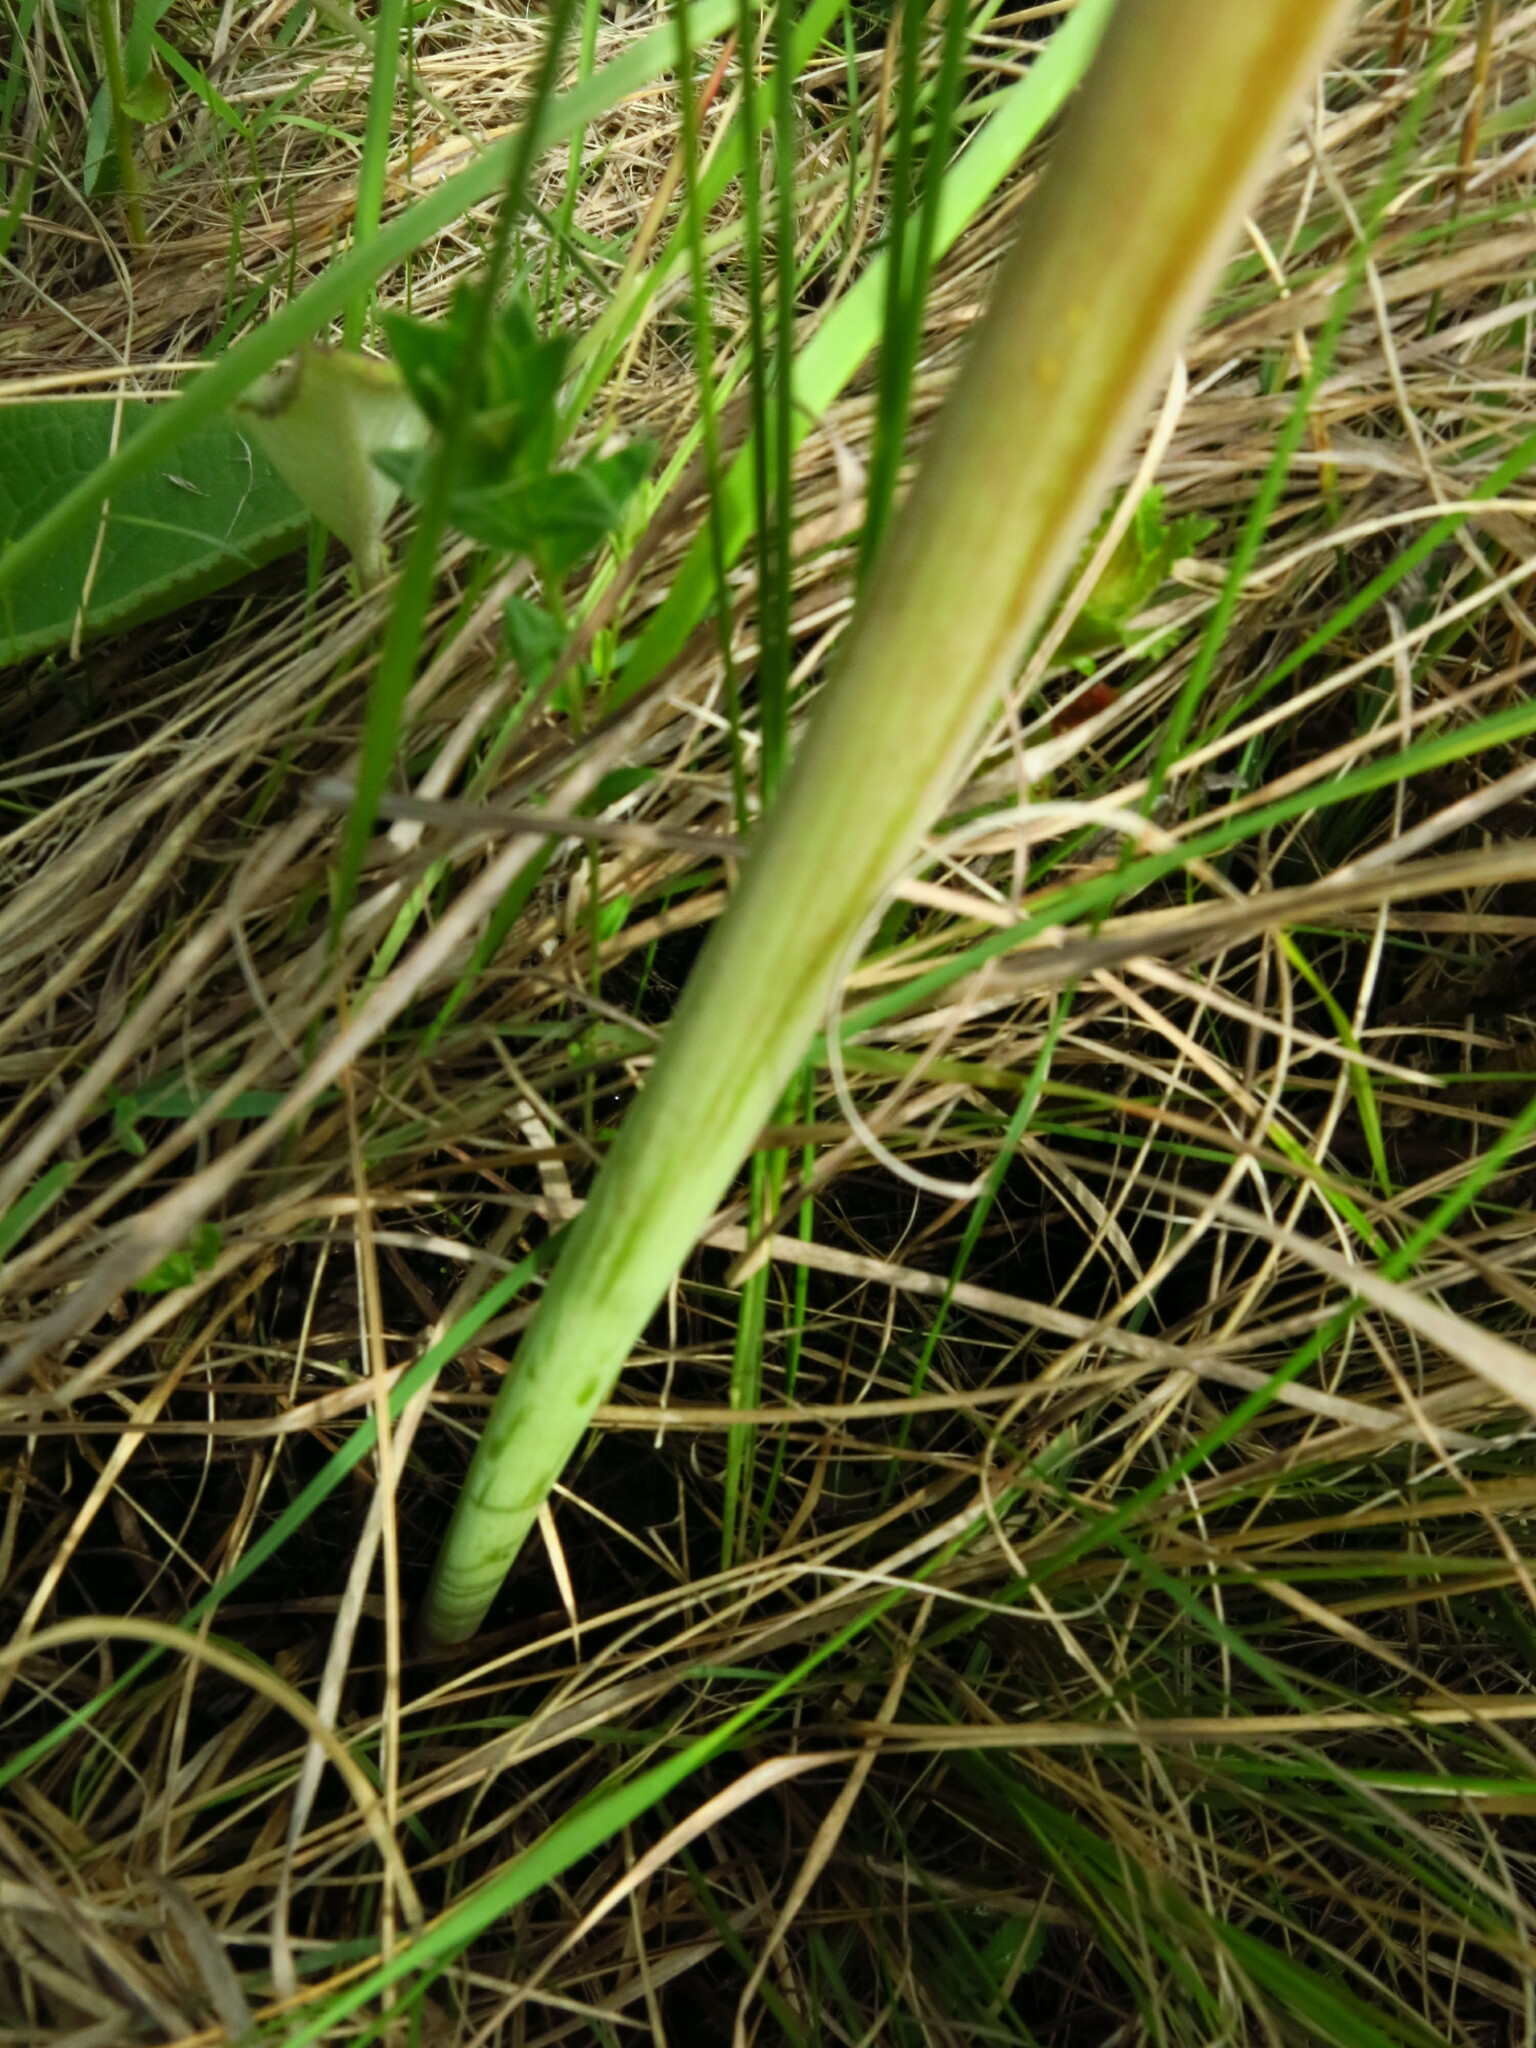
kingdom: Plantae
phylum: Tracheophyta
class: Liliopsida
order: Asparagales
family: Amaryllidaceae
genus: Cyrtanthus
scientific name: Cyrtanthus tuckii
